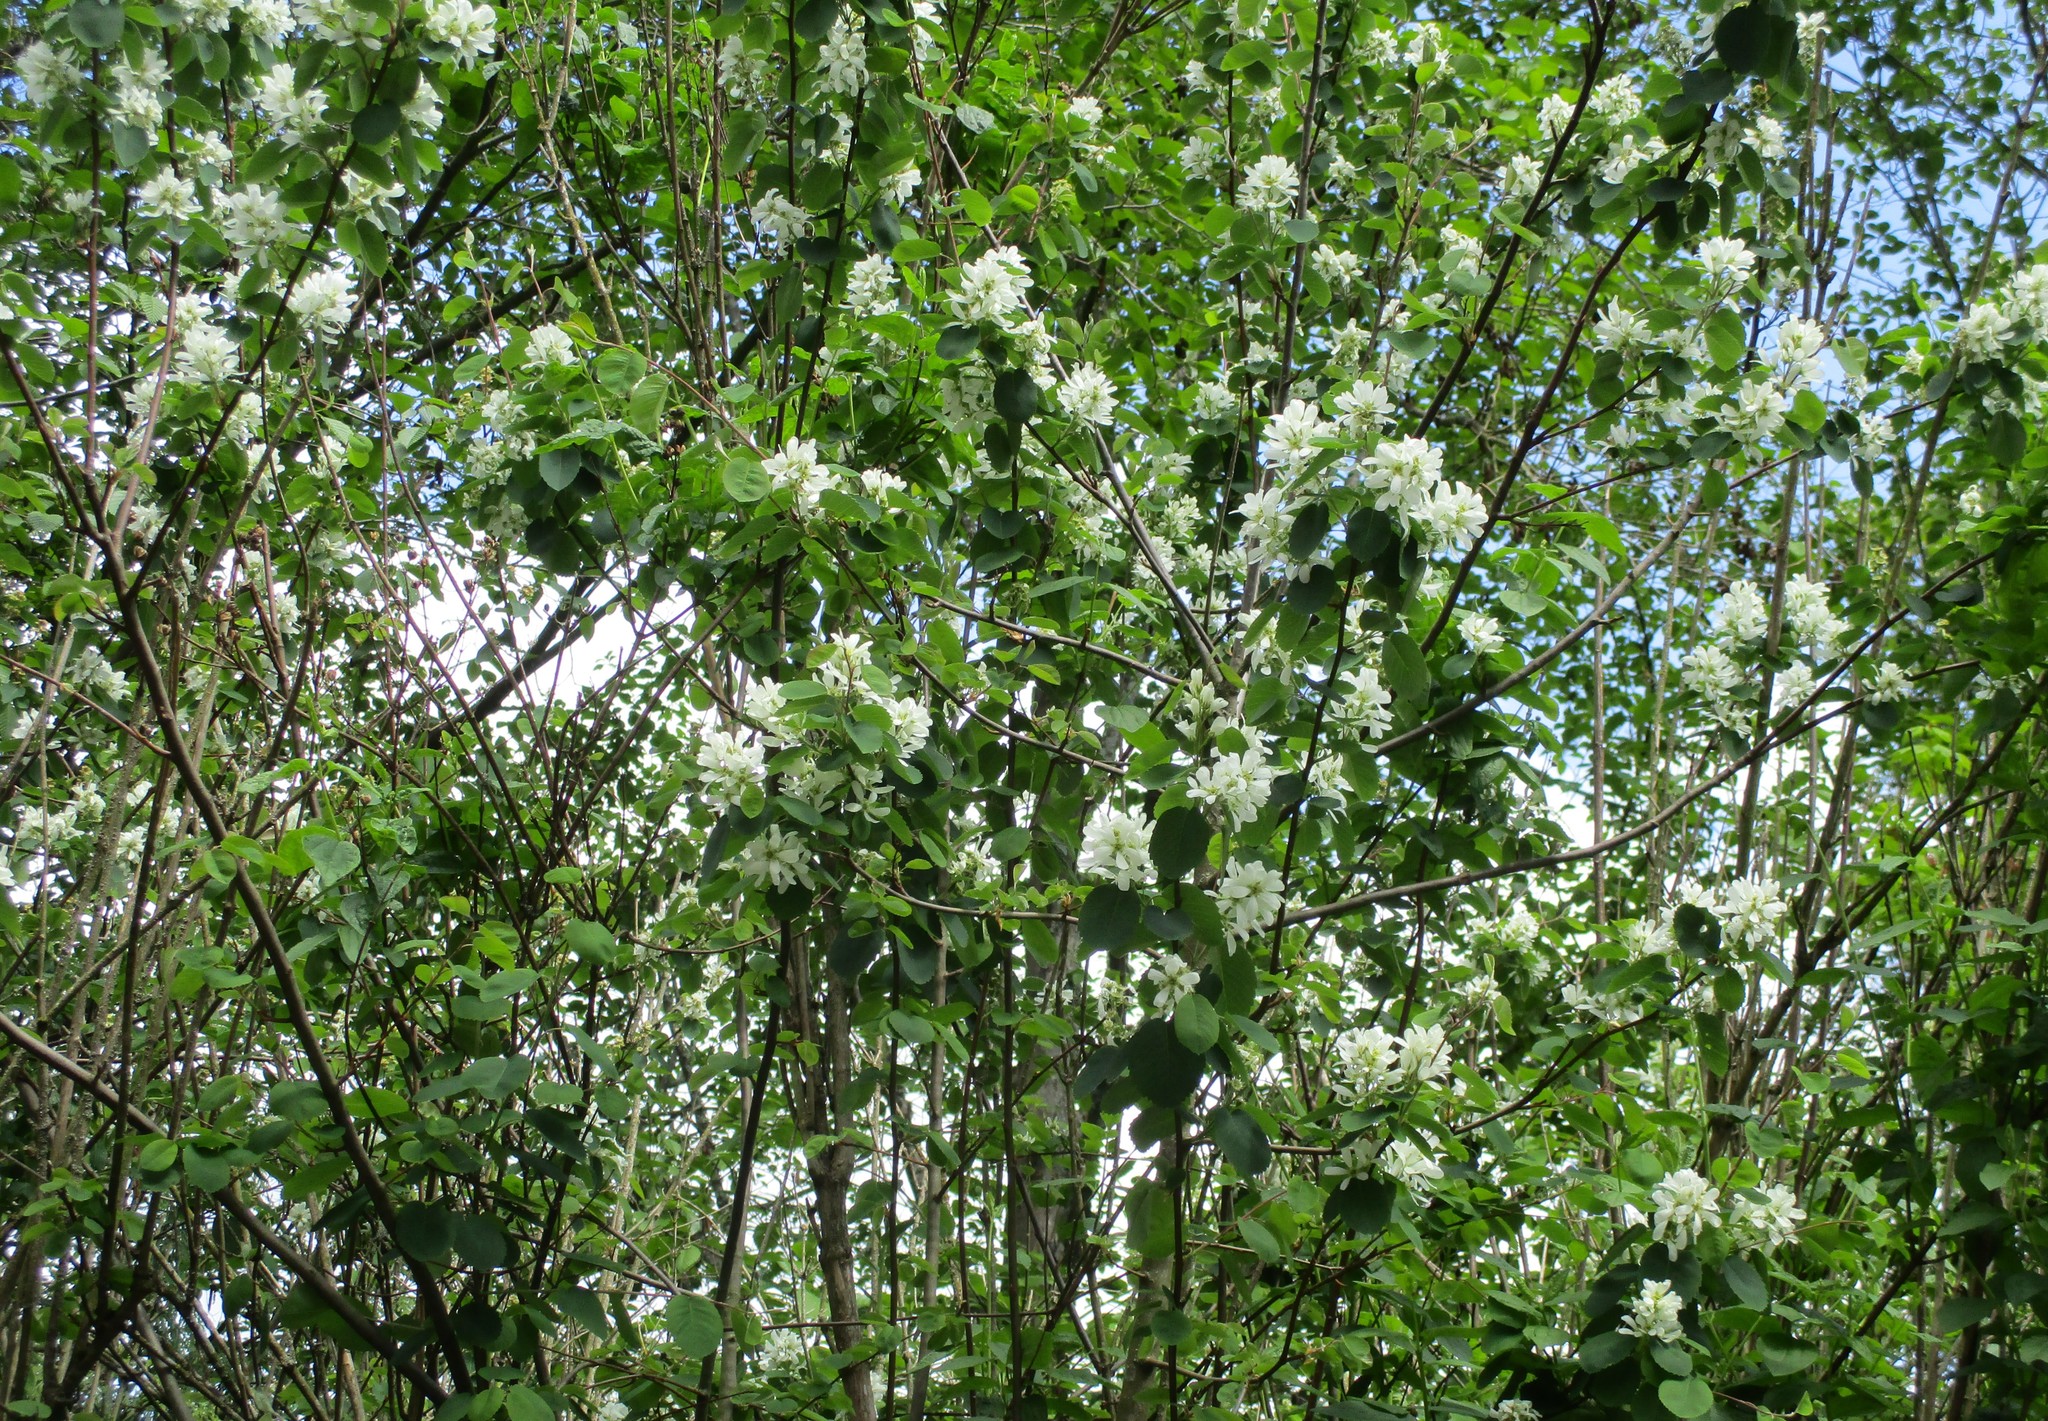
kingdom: Plantae
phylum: Tracheophyta
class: Magnoliopsida
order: Rosales
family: Rosaceae
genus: Amelanchier
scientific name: Amelanchier alnifolia
